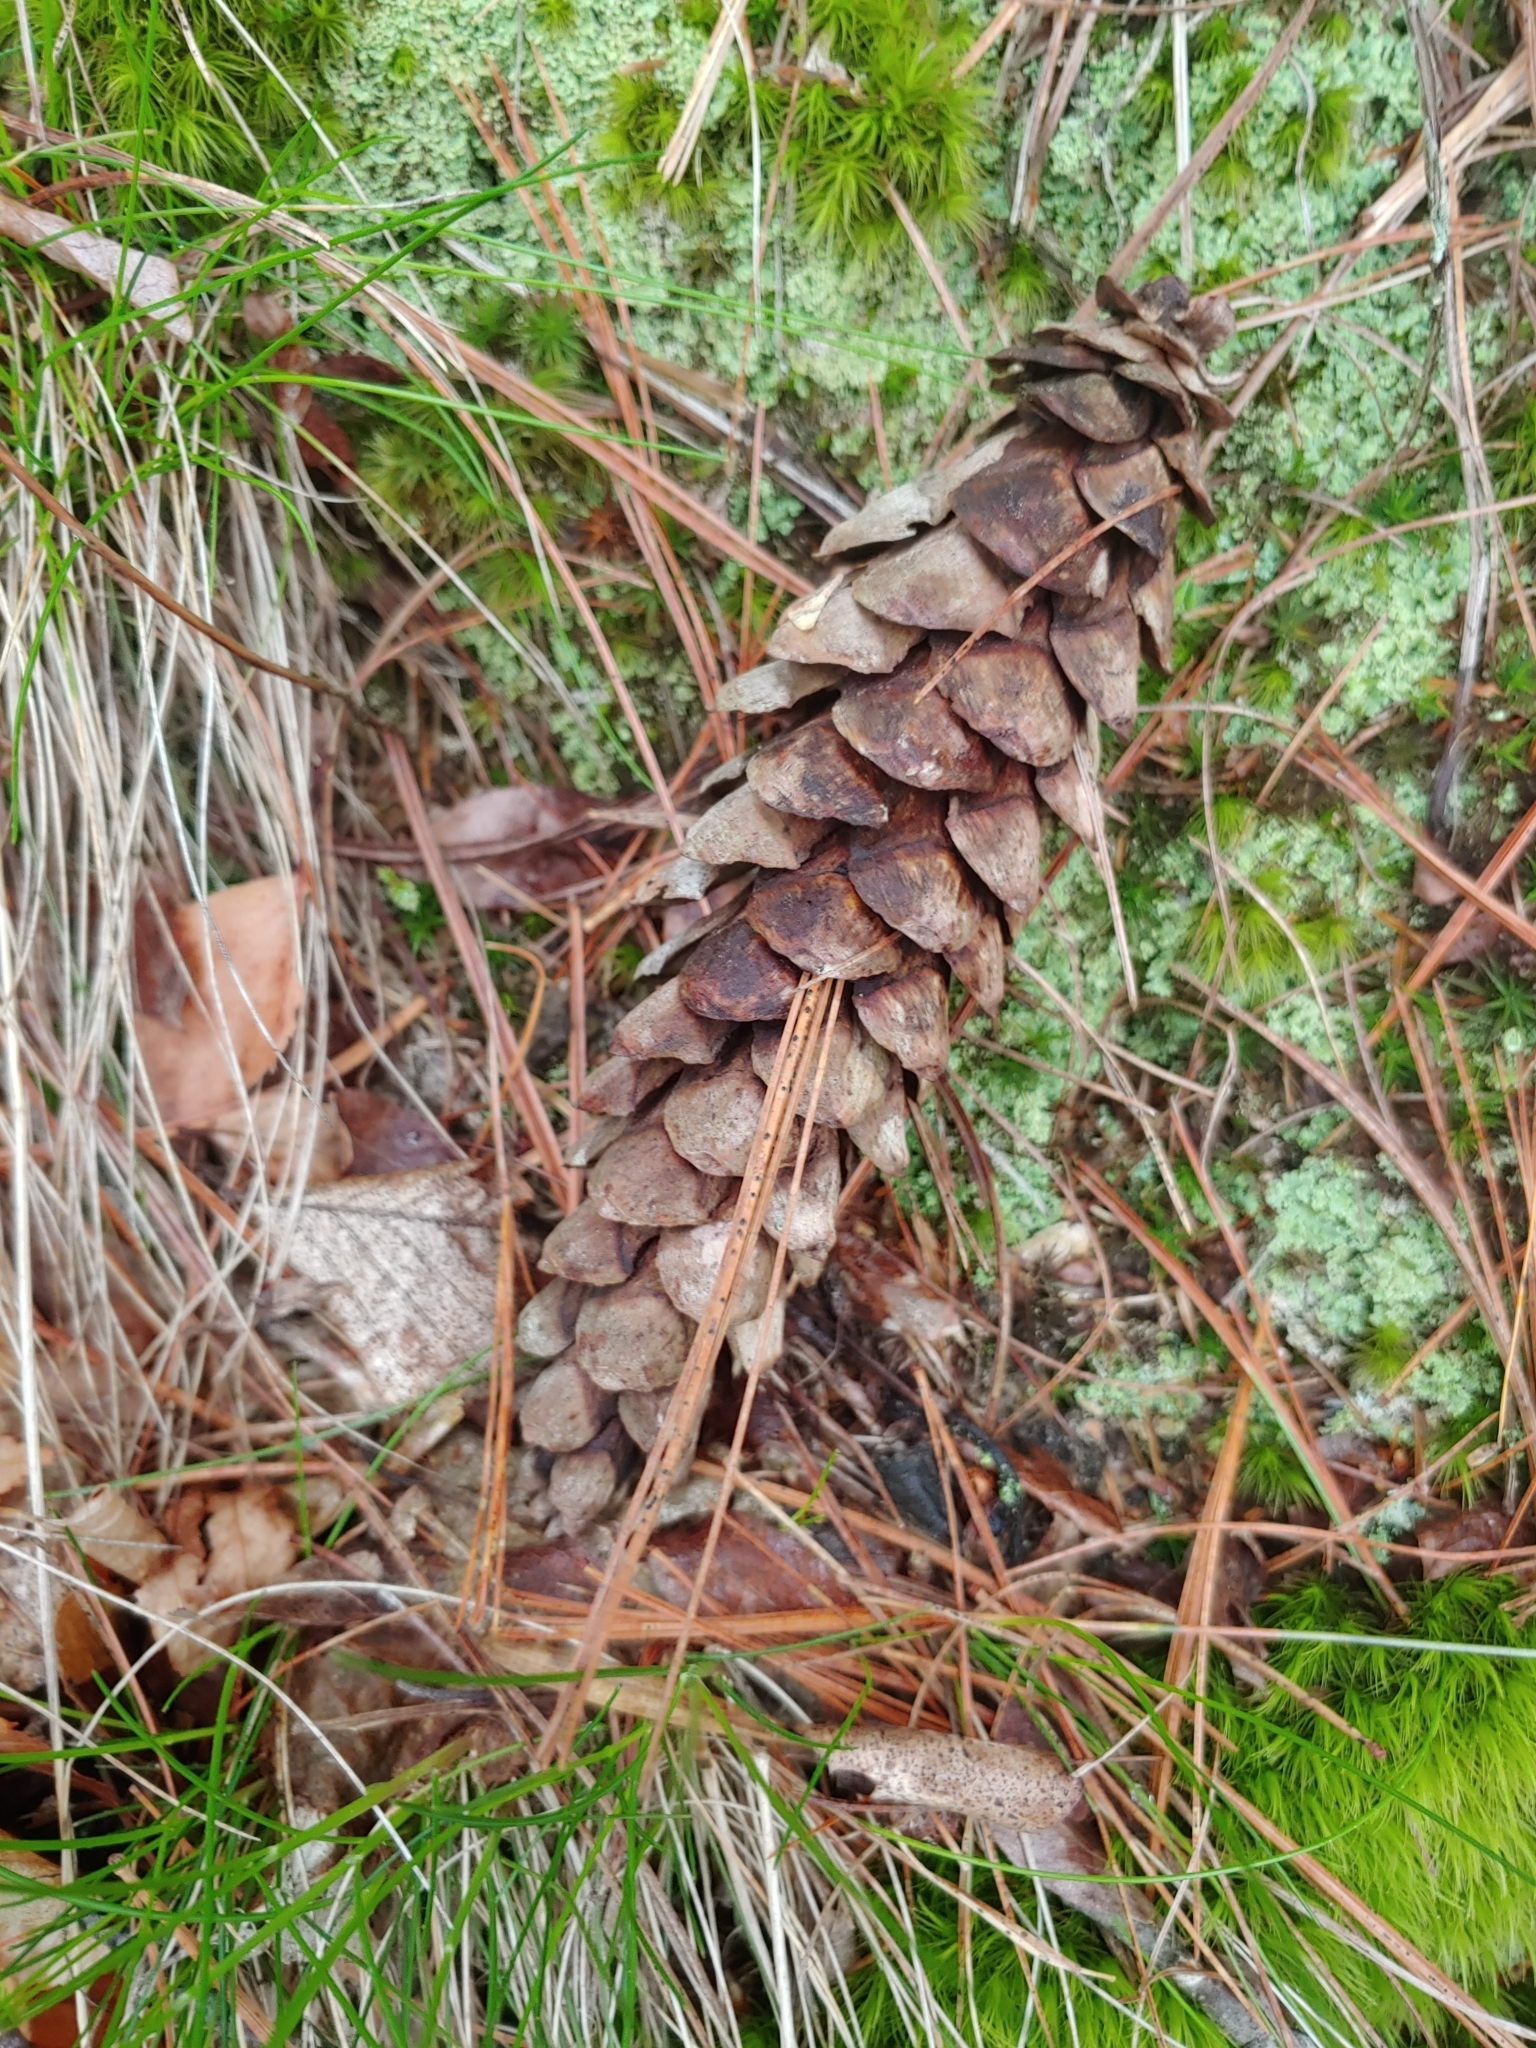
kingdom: Plantae
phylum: Tracheophyta
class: Pinopsida
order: Pinales
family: Pinaceae
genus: Pinus
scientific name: Pinus strobus
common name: Weymouth pine
